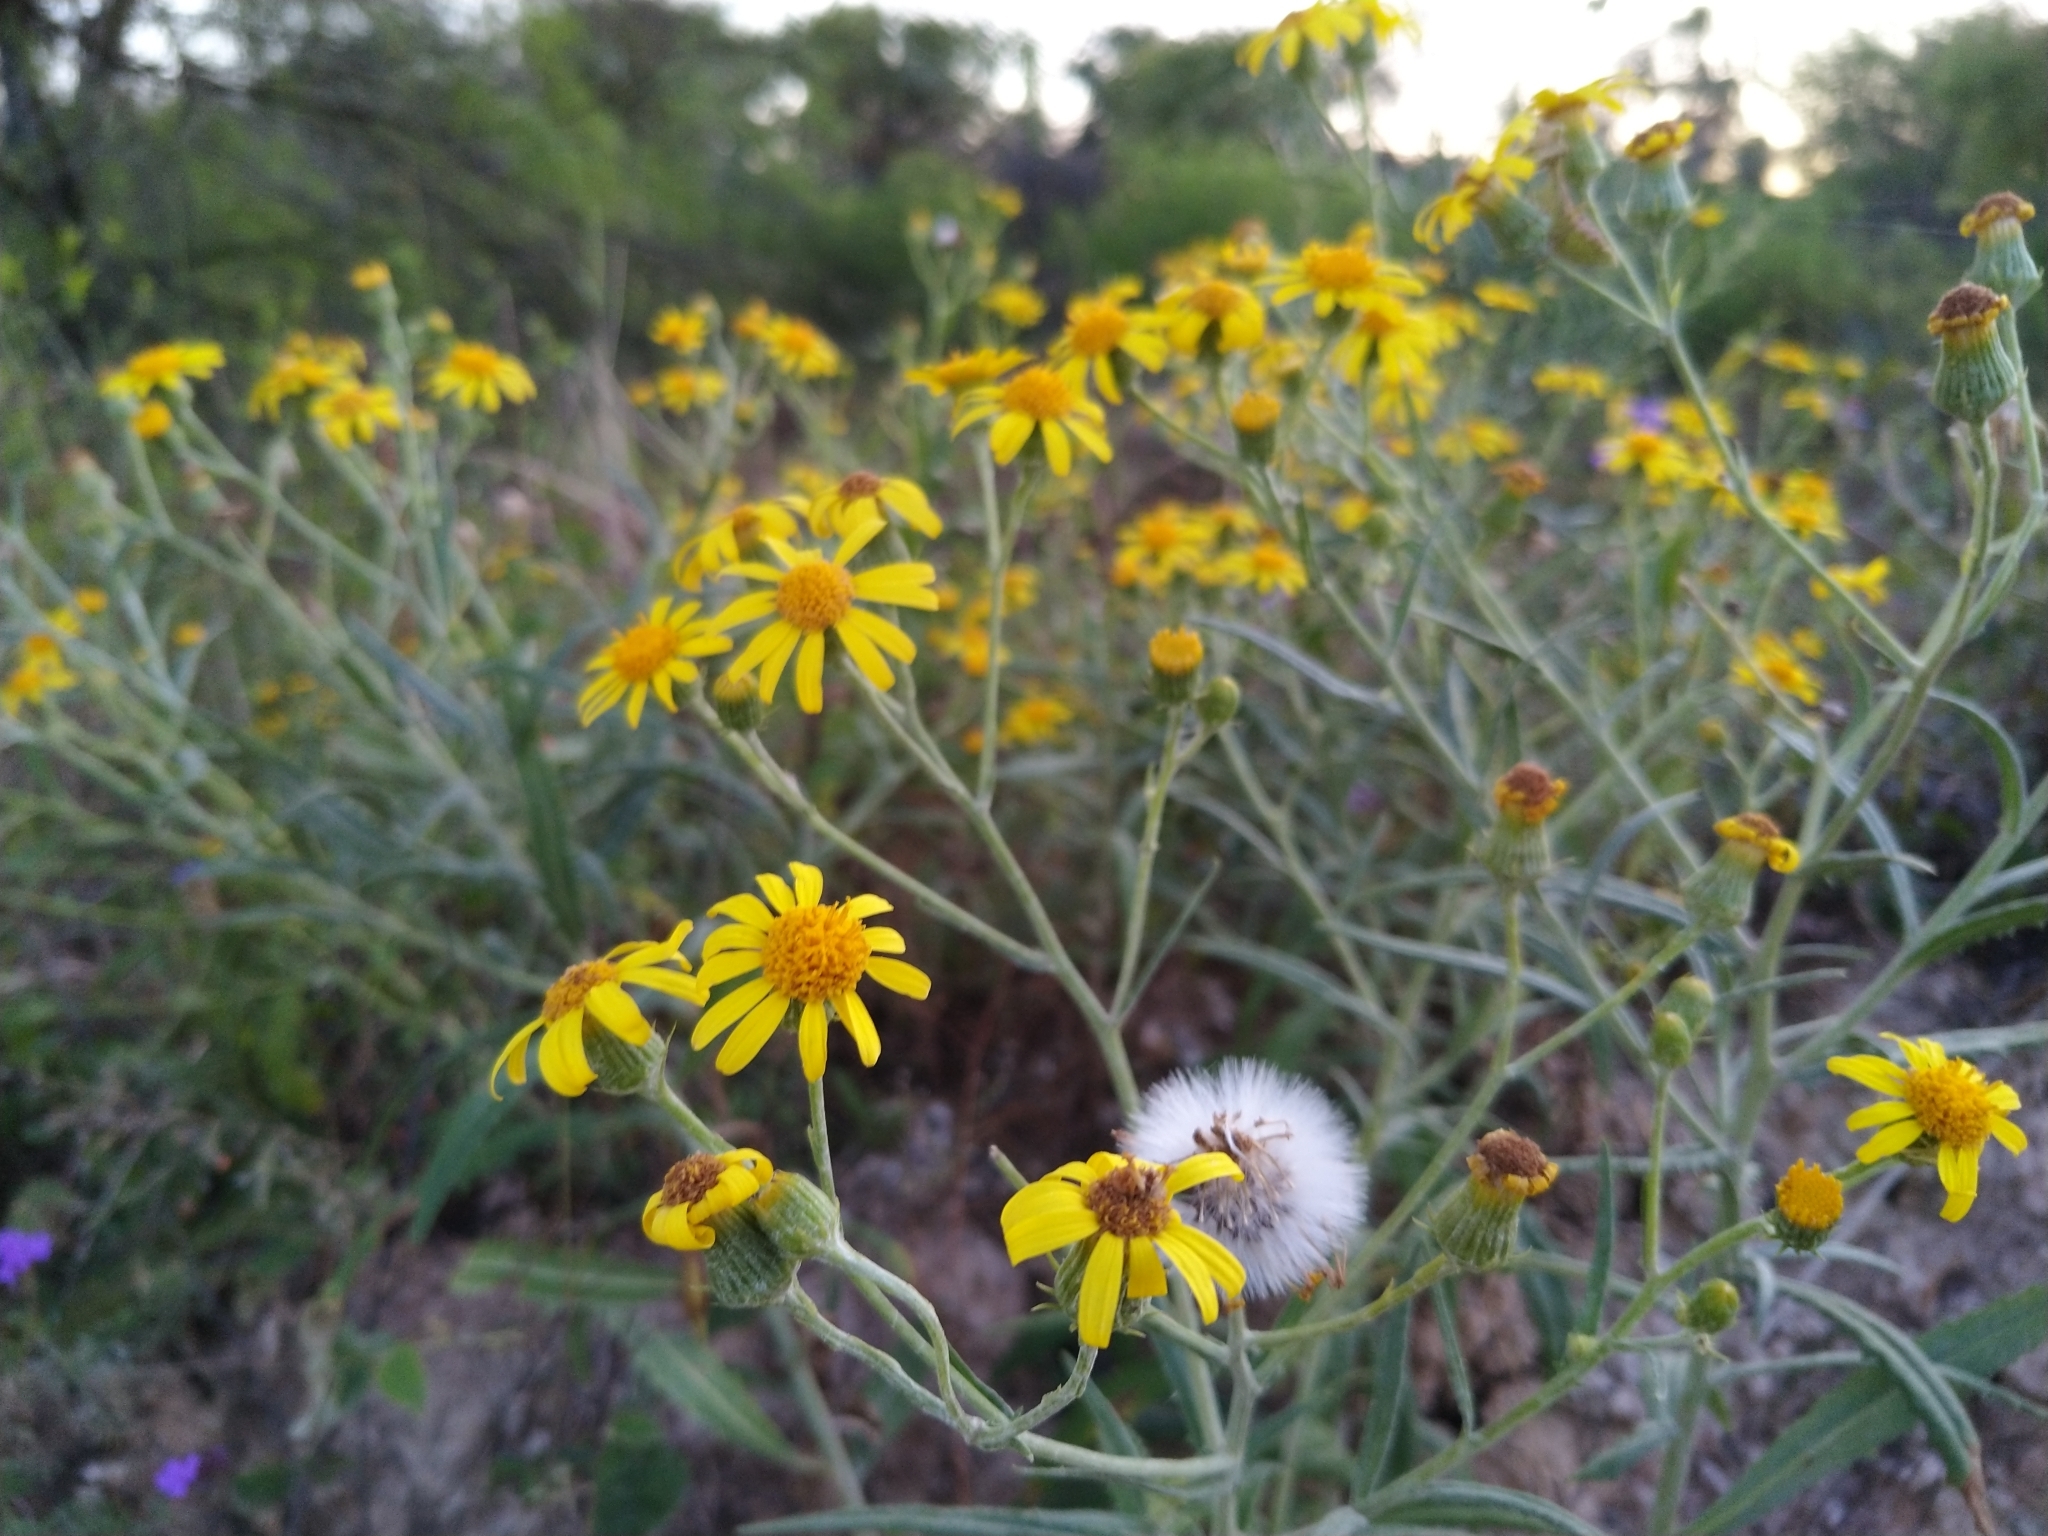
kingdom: Plantae
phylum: Tracheophyta
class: Magnoliopsida
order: Asterales
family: Asteraceae
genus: Senecio
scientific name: Senecio pterophorus
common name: Shoddy ragwort
